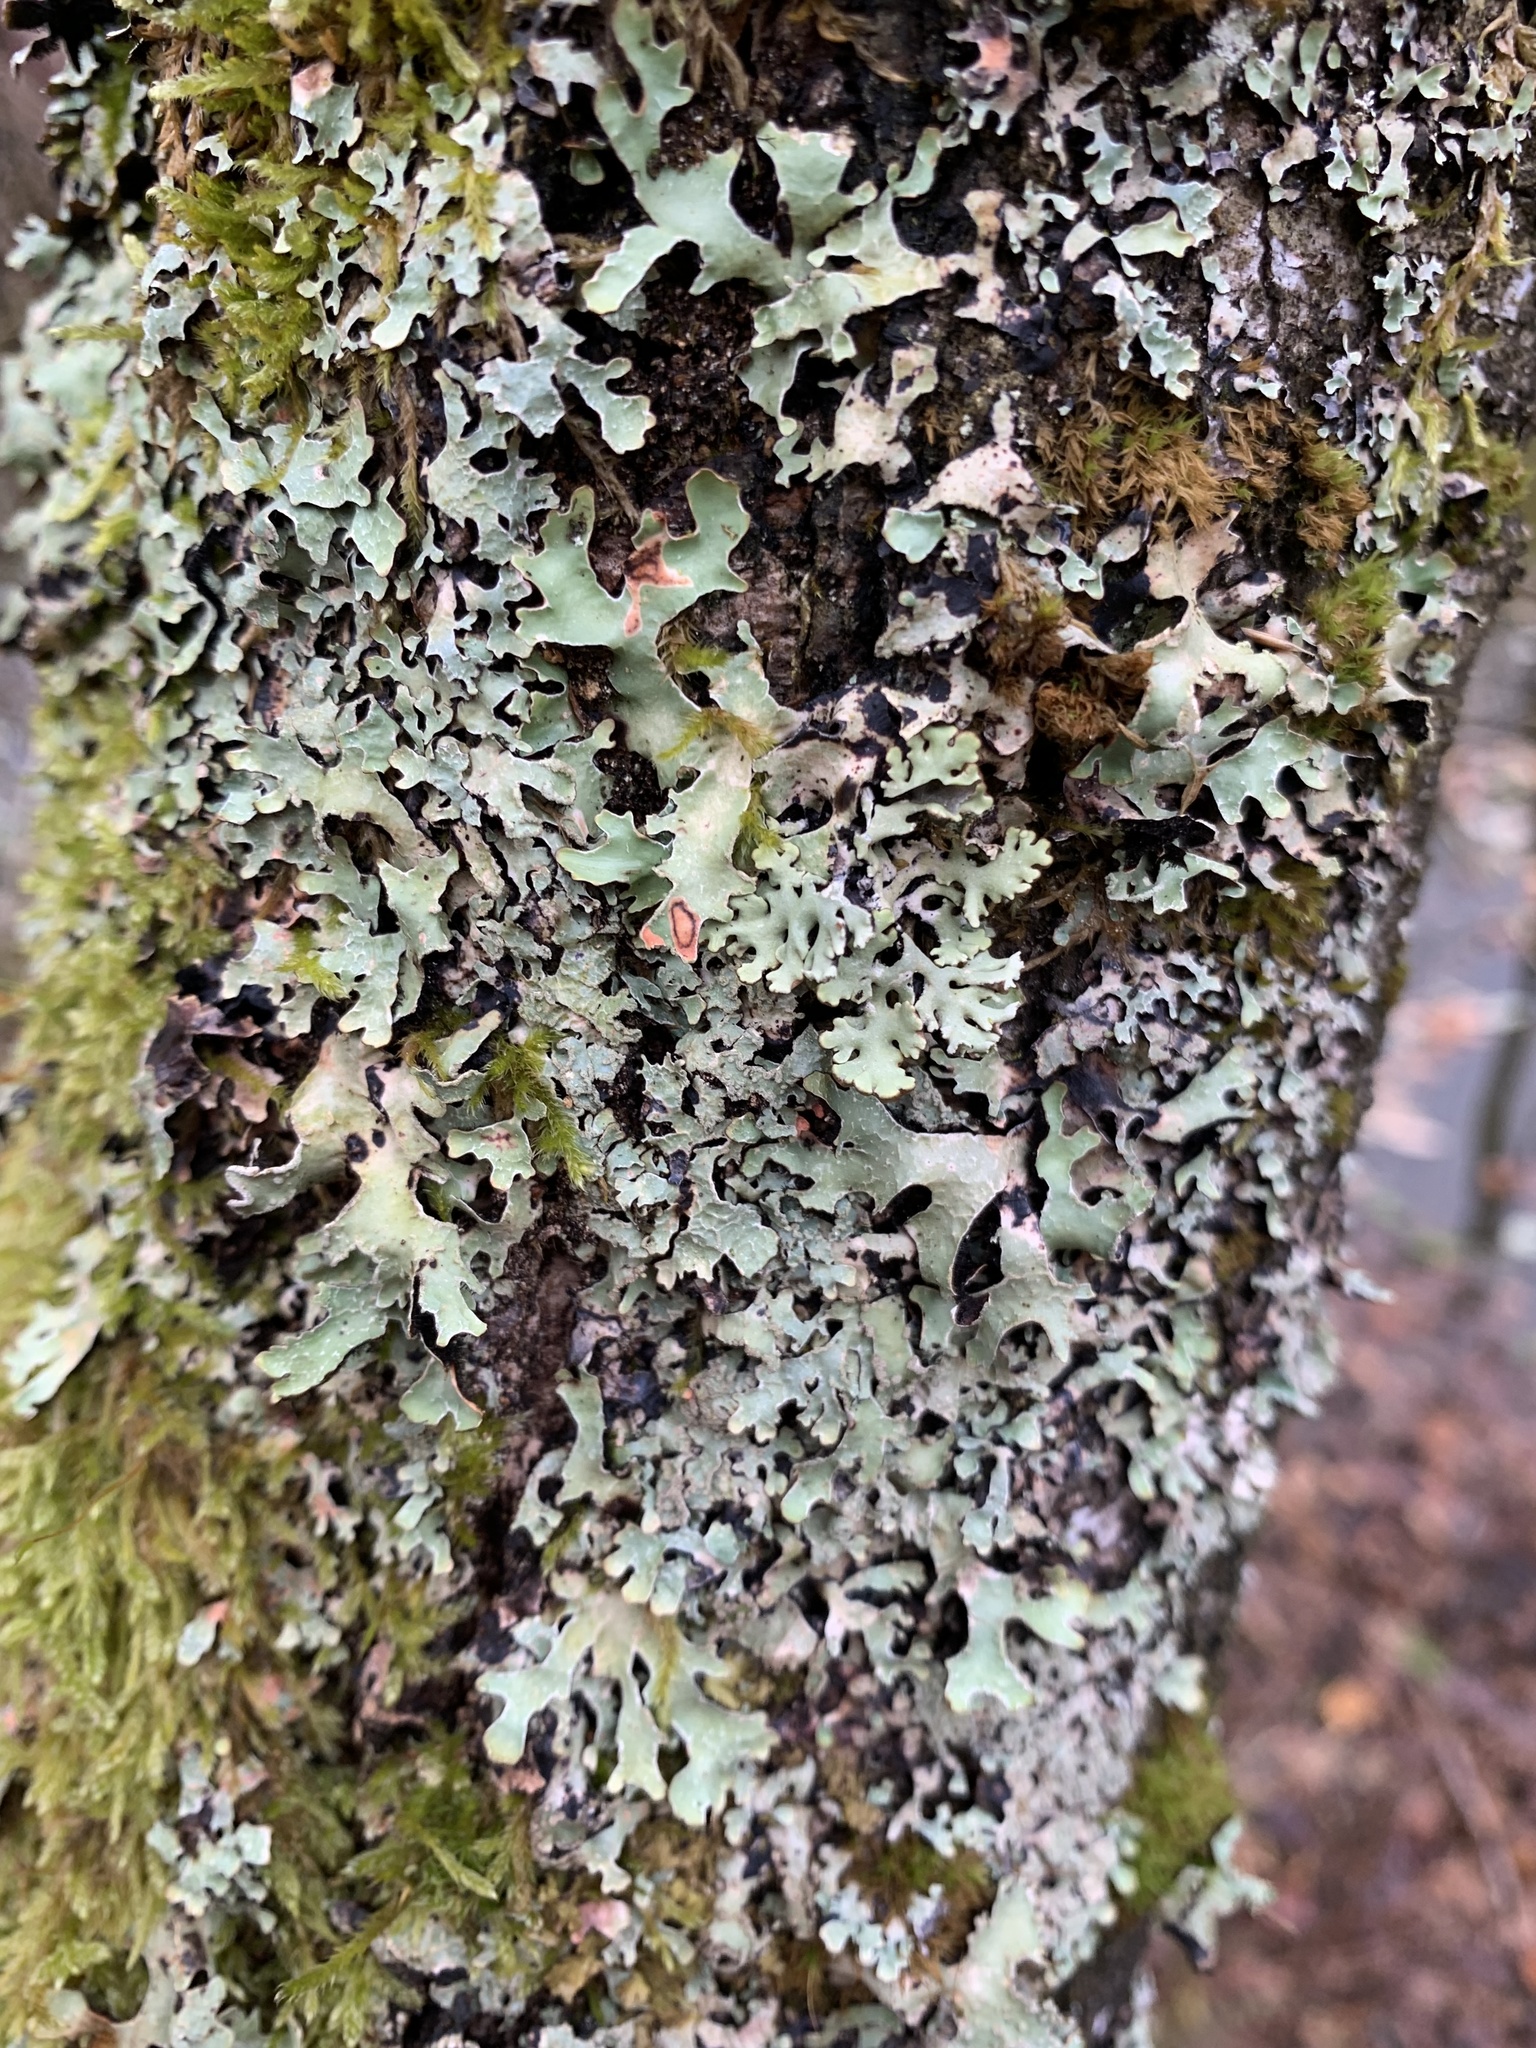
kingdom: Fungi
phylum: Ascomycota
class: Lecanoromycetes
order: Lecanorales
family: Parmeliaceae
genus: Parmelia
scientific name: Parmelia sulcata
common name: Netted shield lichen
